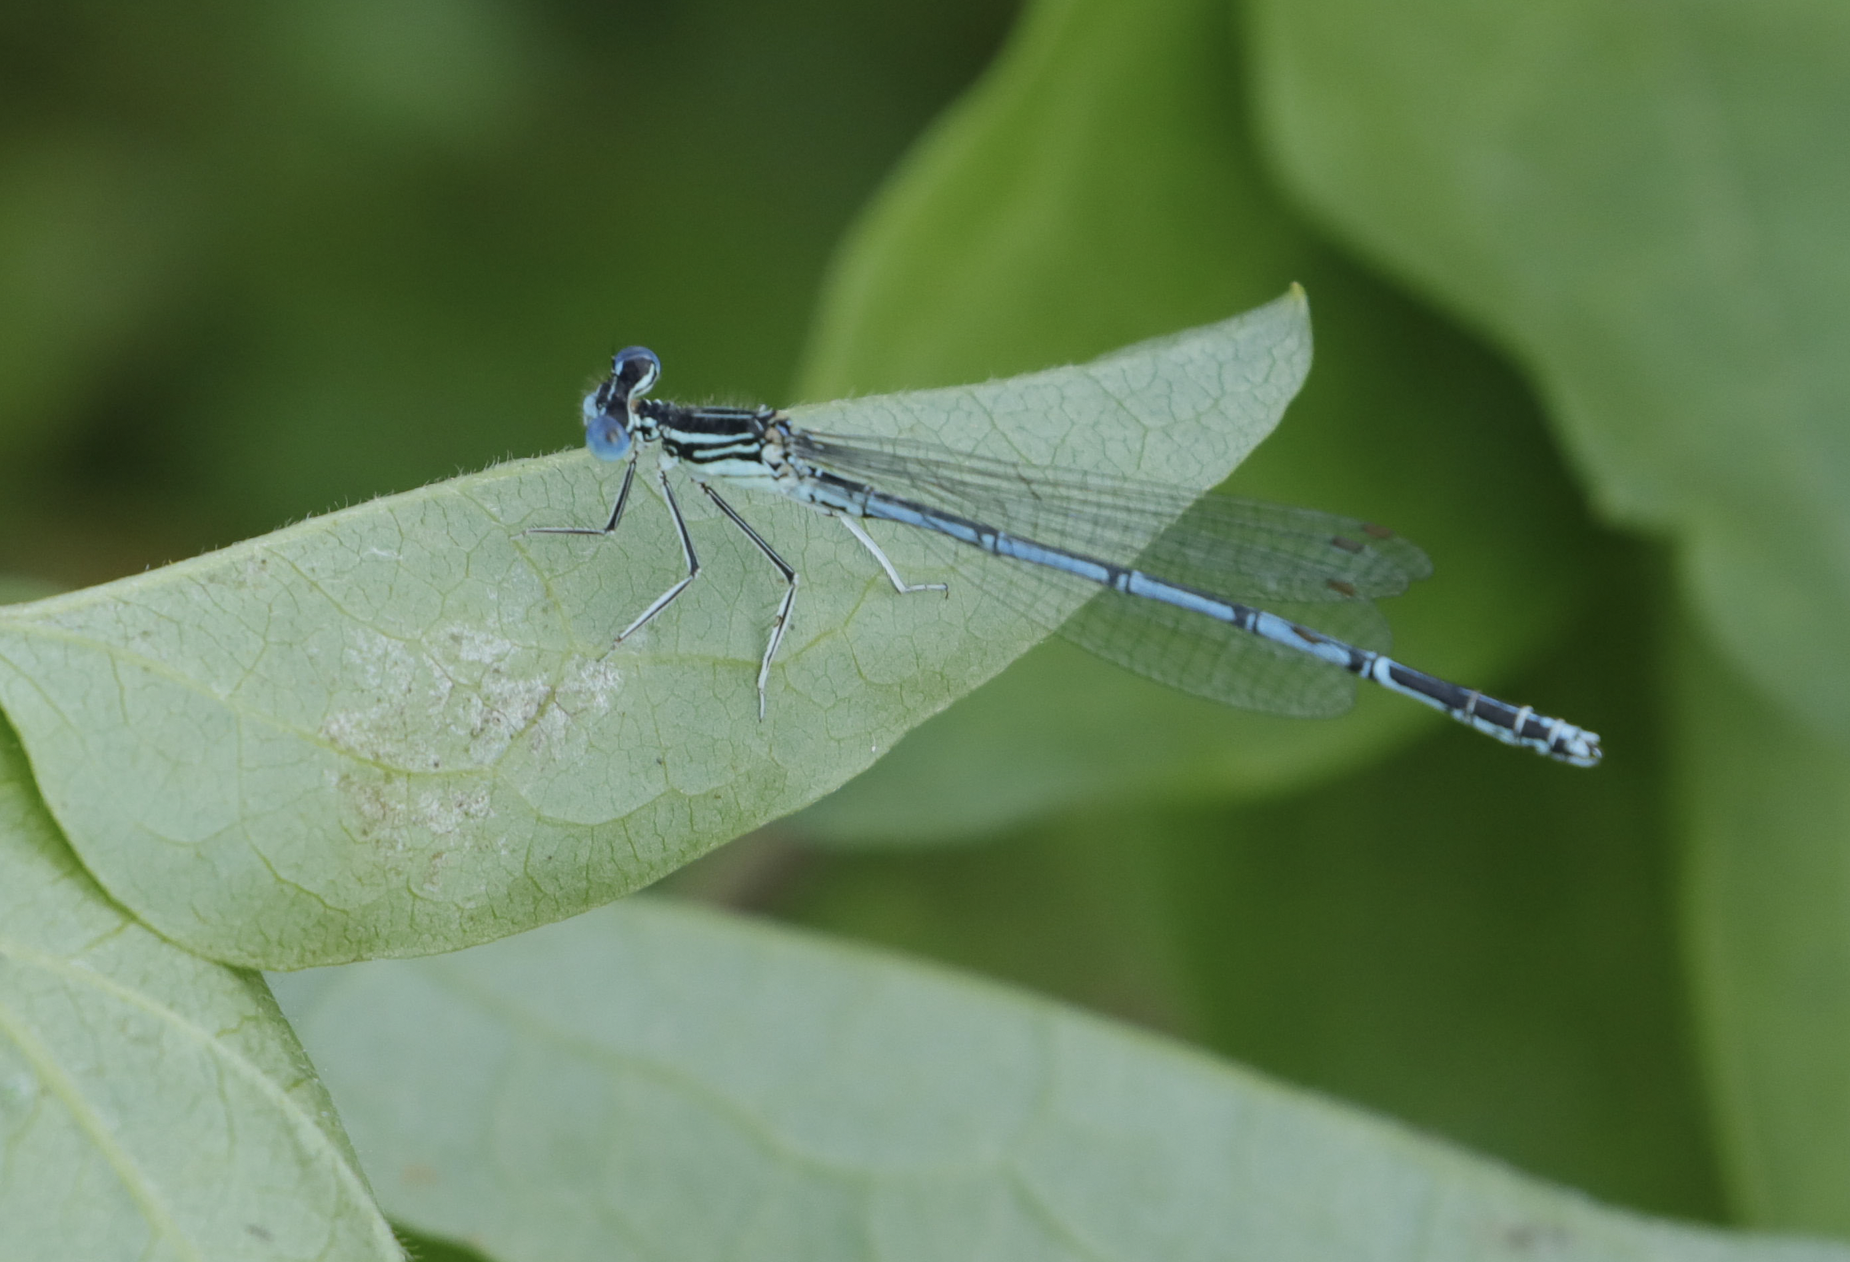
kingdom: Animalia
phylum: Arthropoda
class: Insecta
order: Odonata
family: Platycnemididae
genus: Platycnemis
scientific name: Platycnemis pennipes
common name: White-legged damselfly
